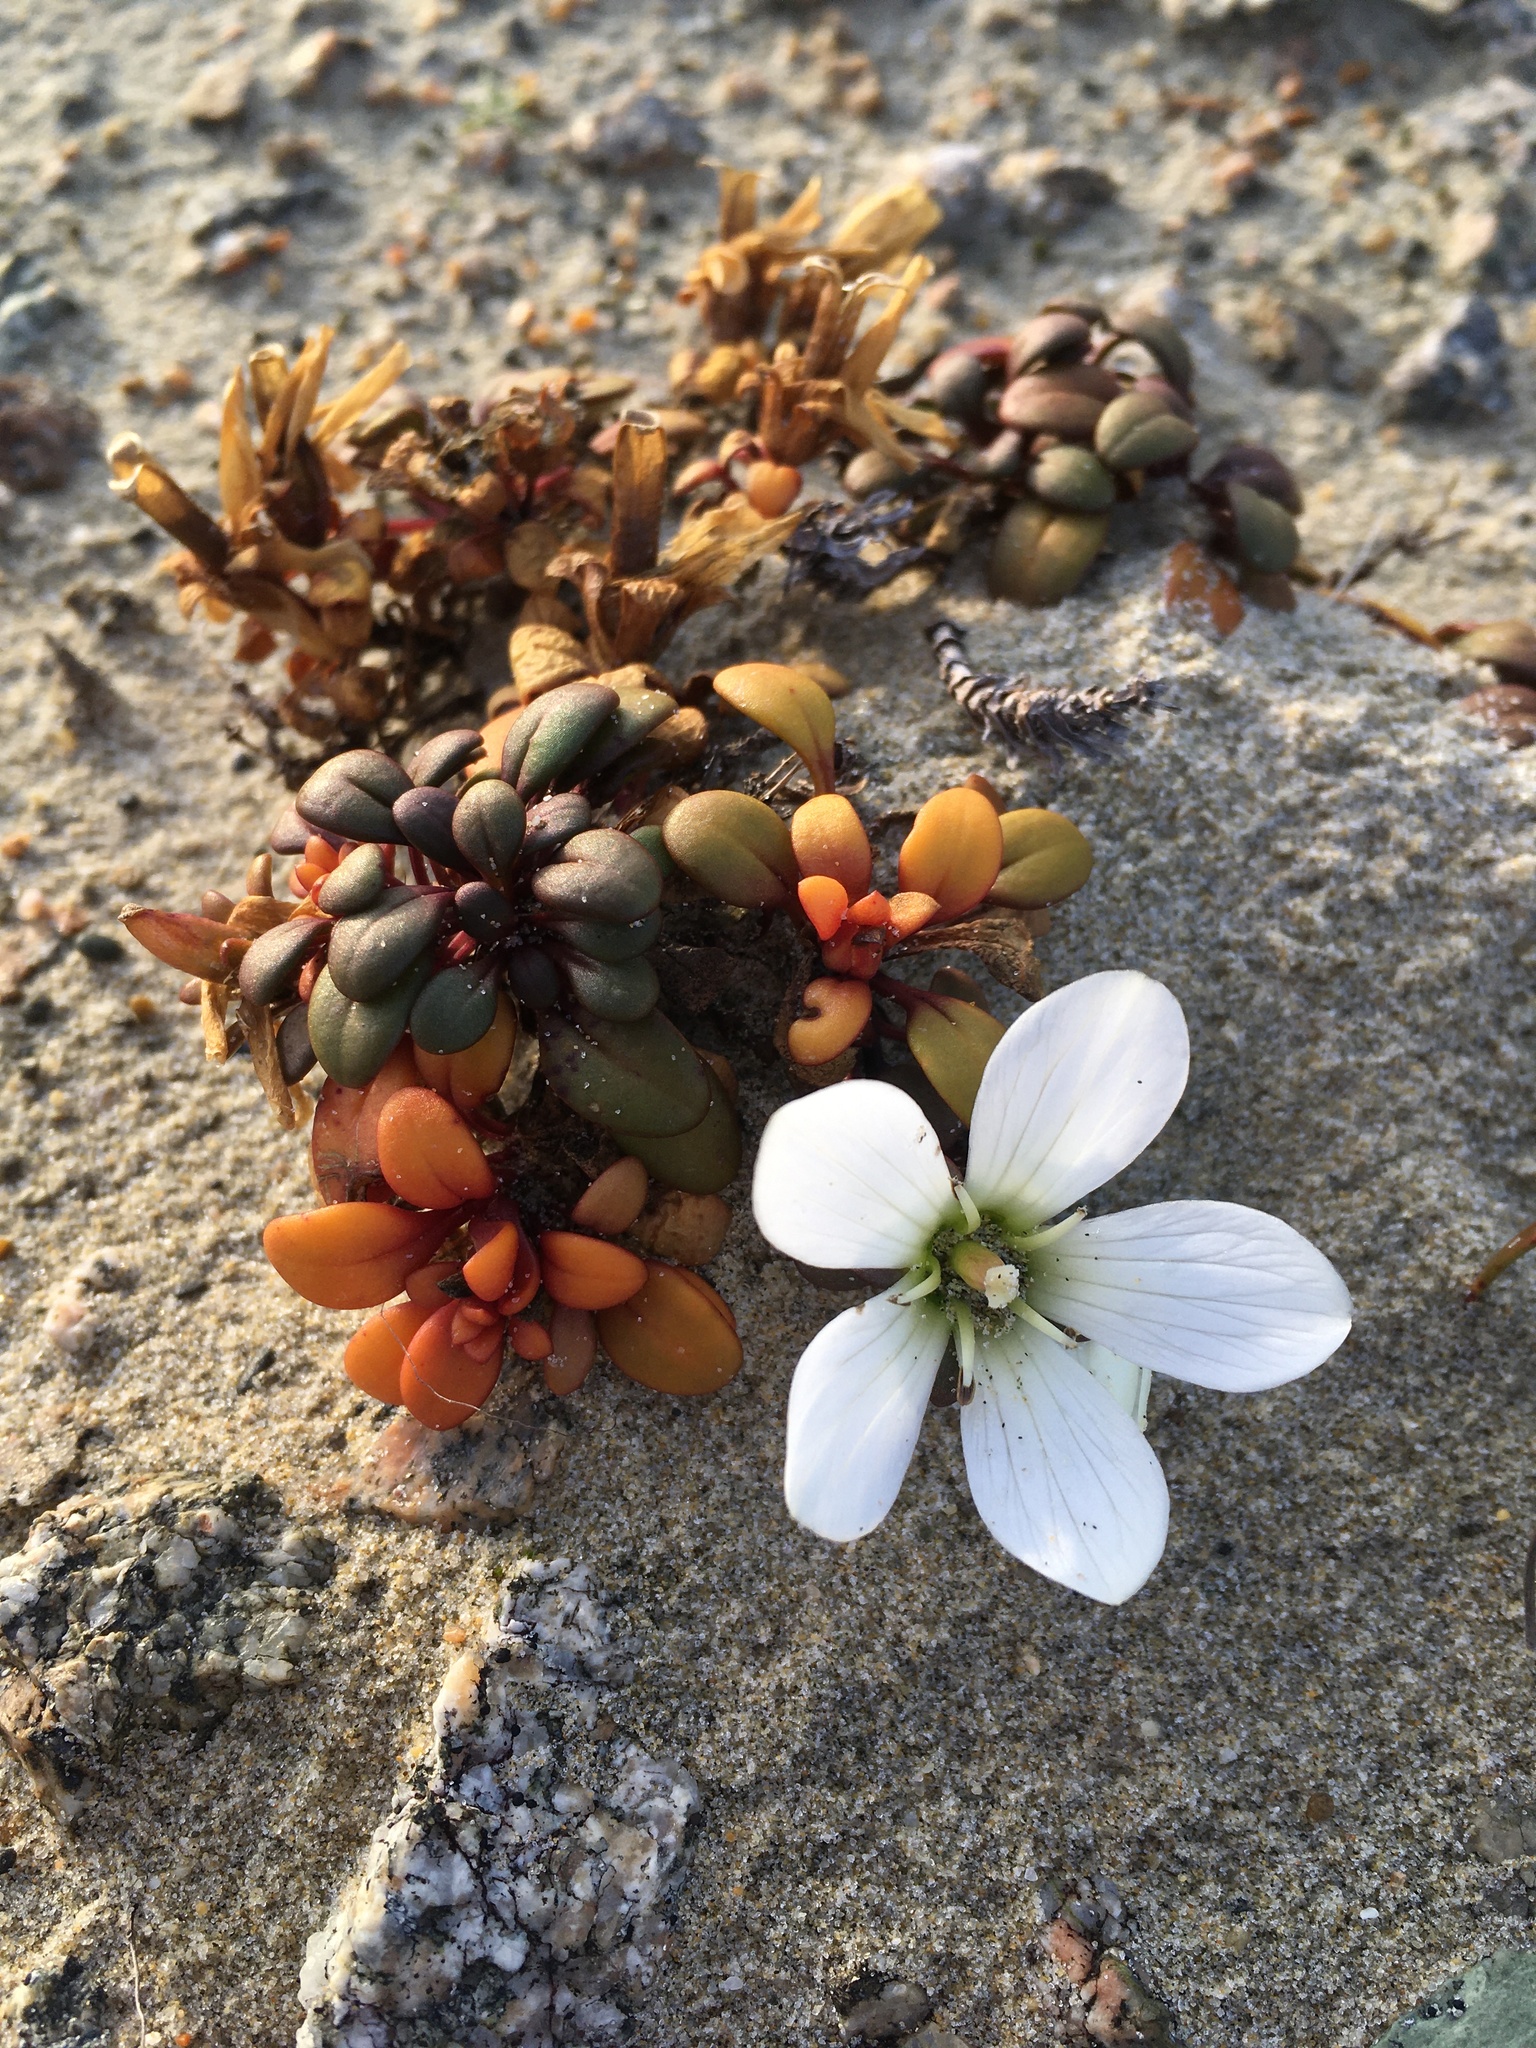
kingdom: Plantae
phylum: Tracheophyta
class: Magnoliopsida
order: Gentianales
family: Gentianaceae
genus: Gentianella
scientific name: Gentianella saxosa
